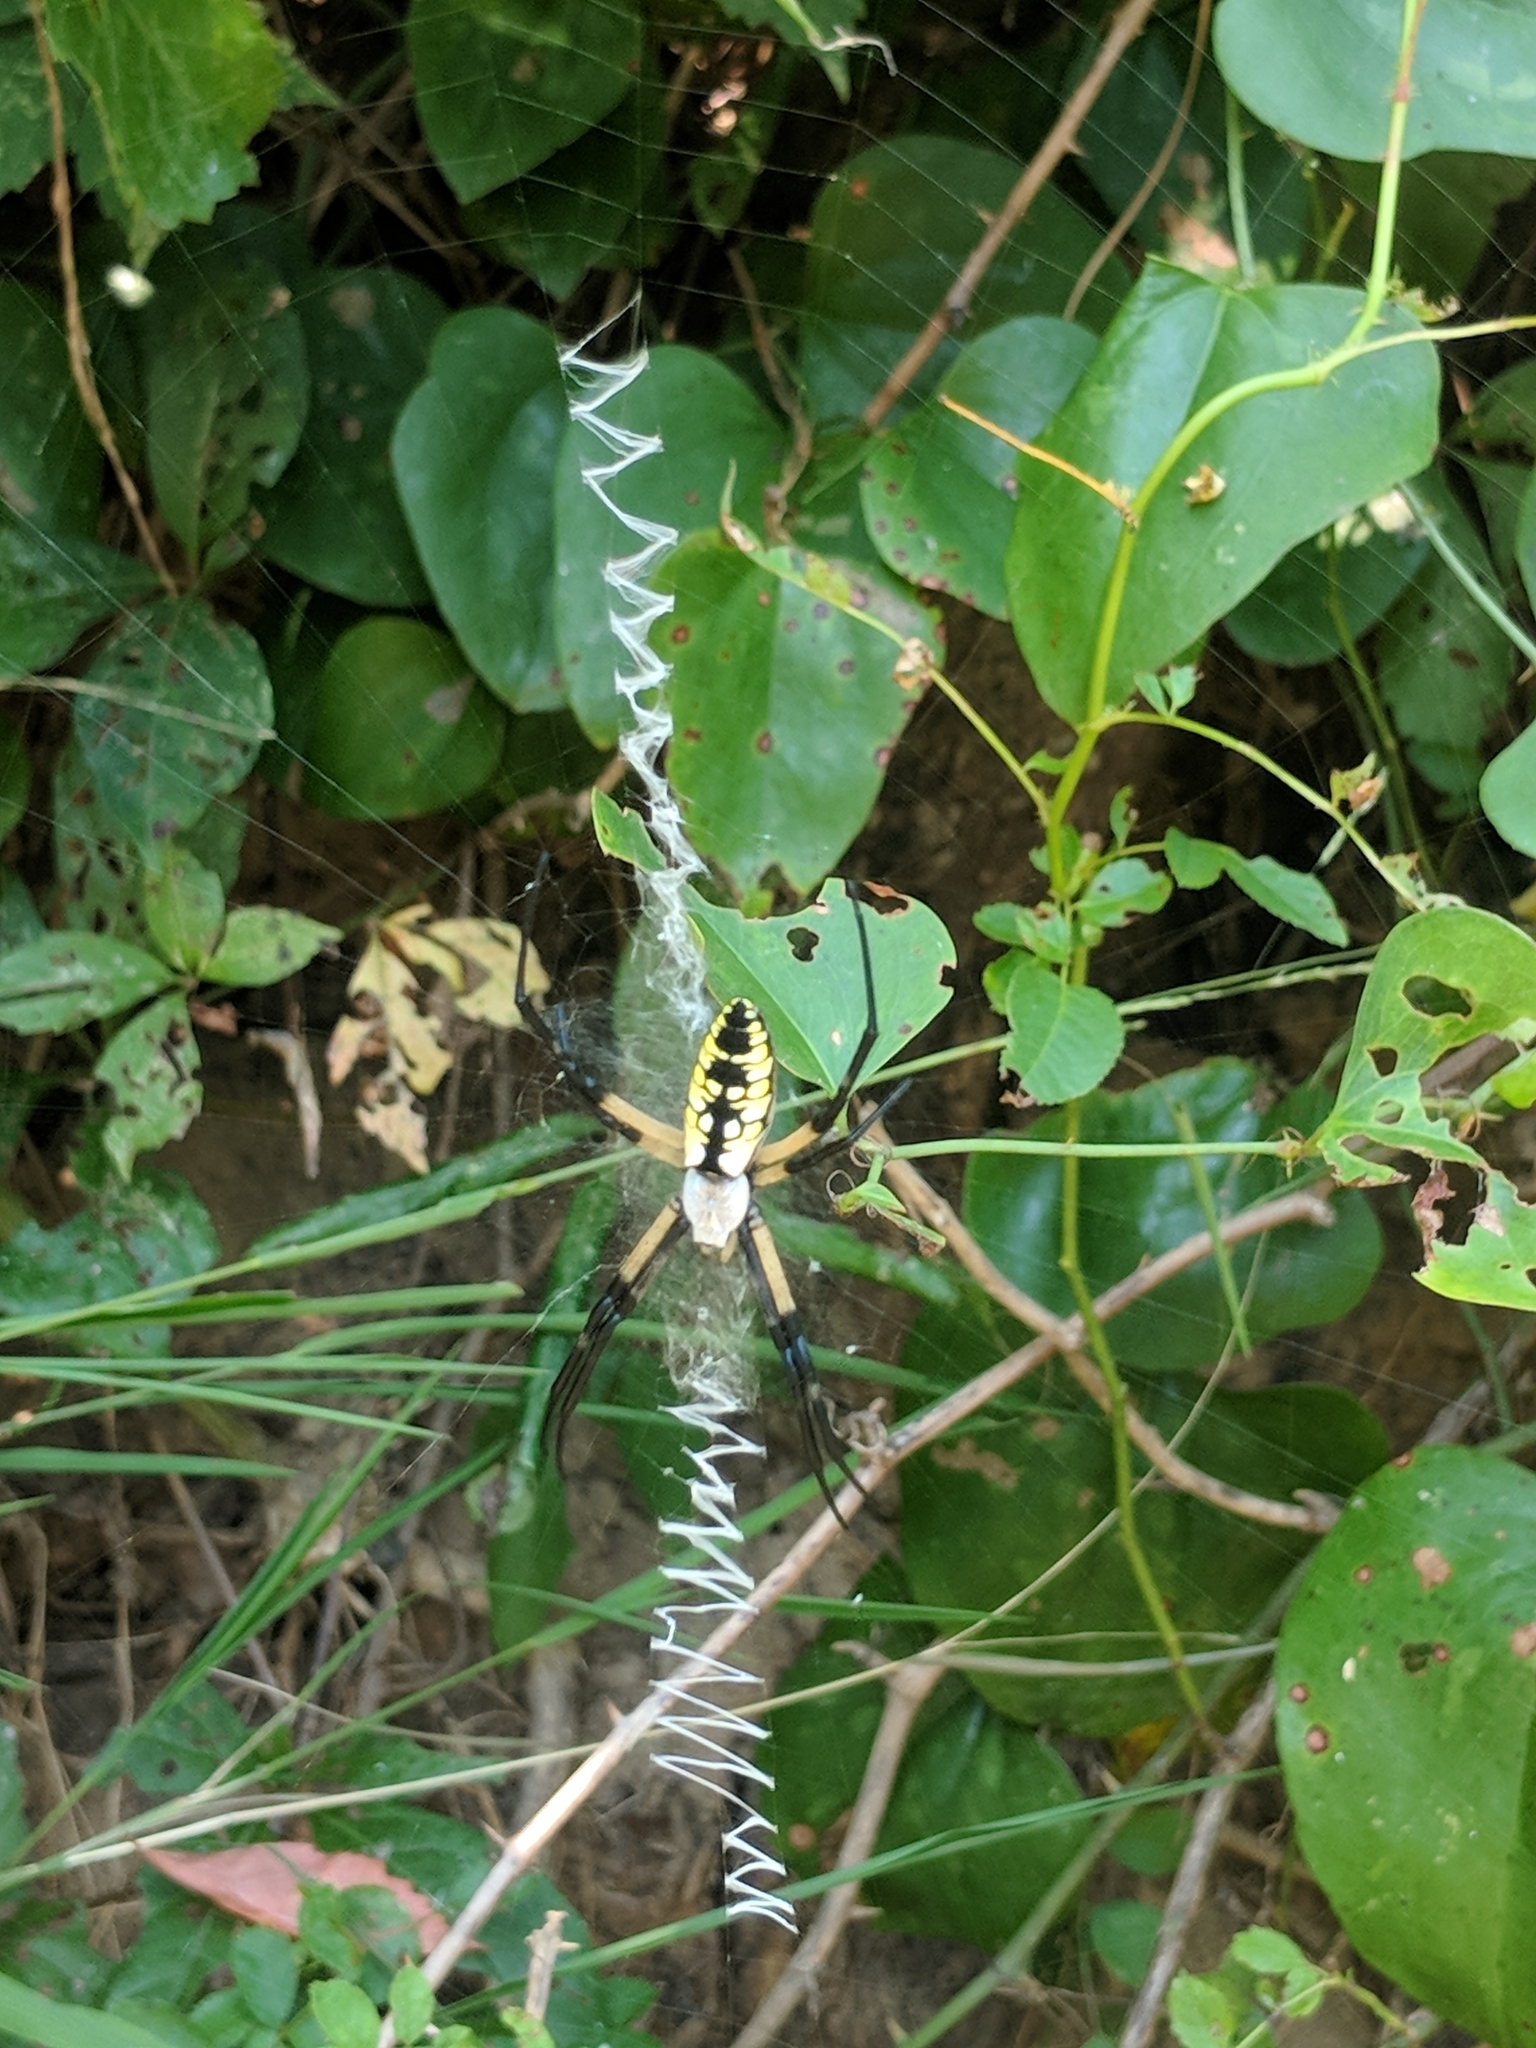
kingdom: Animalia
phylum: Arthropoda
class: Arachnida
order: Araneae
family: Araneidae
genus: Argiope
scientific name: Argiope aurantia
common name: Orb weavers
